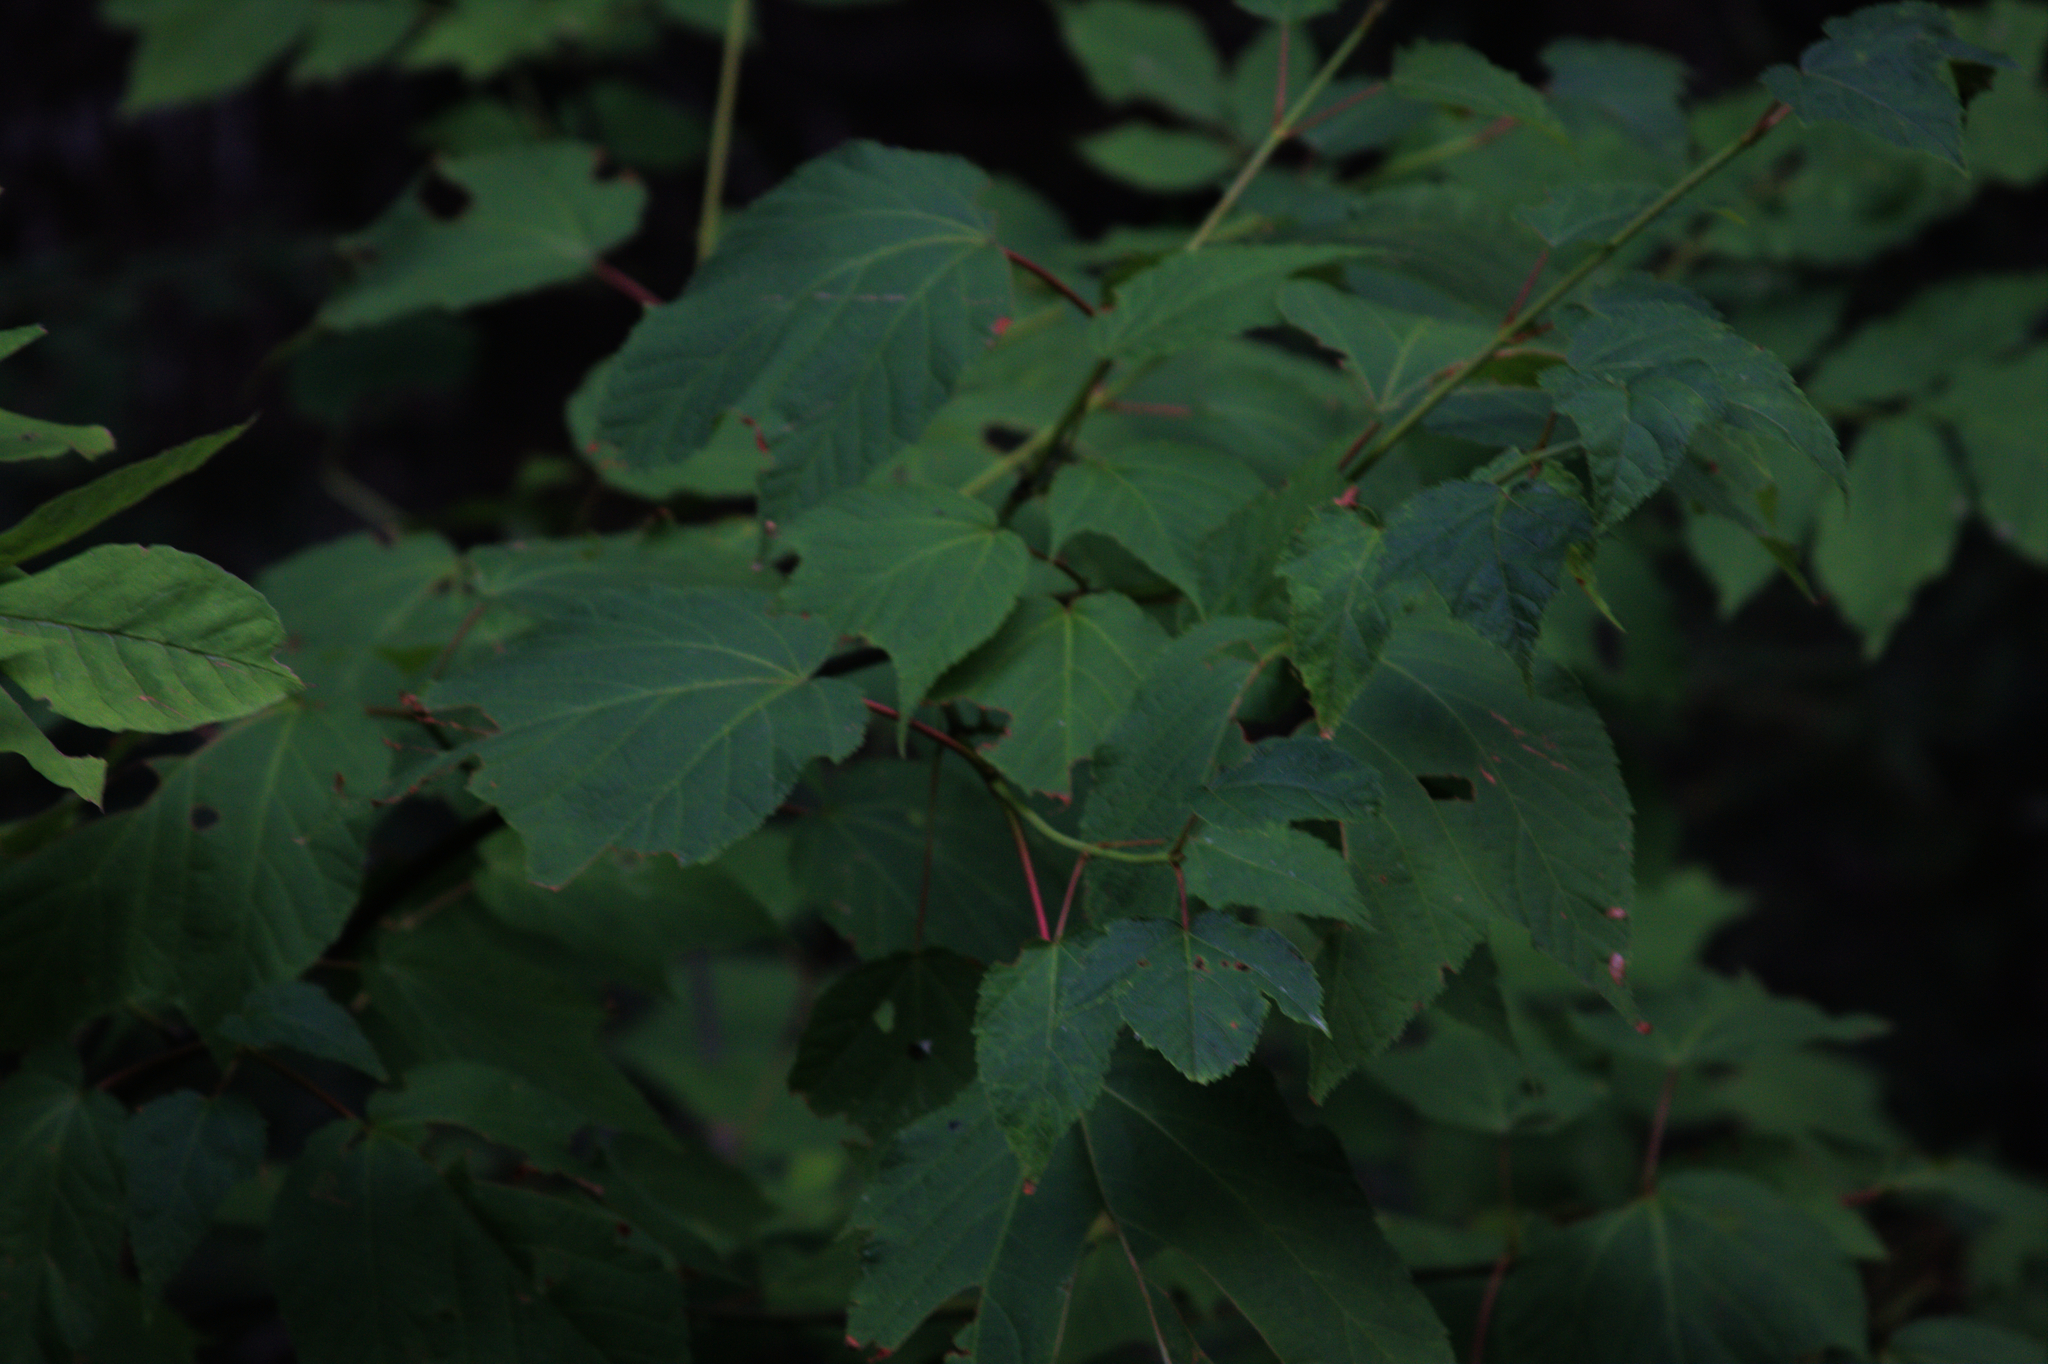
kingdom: Plantae
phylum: Tracheophyta
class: Magnoliopsida
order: Sapindales
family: Sapindaceae
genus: Acer
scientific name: Acer pensylvanicum
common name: Moosewood
